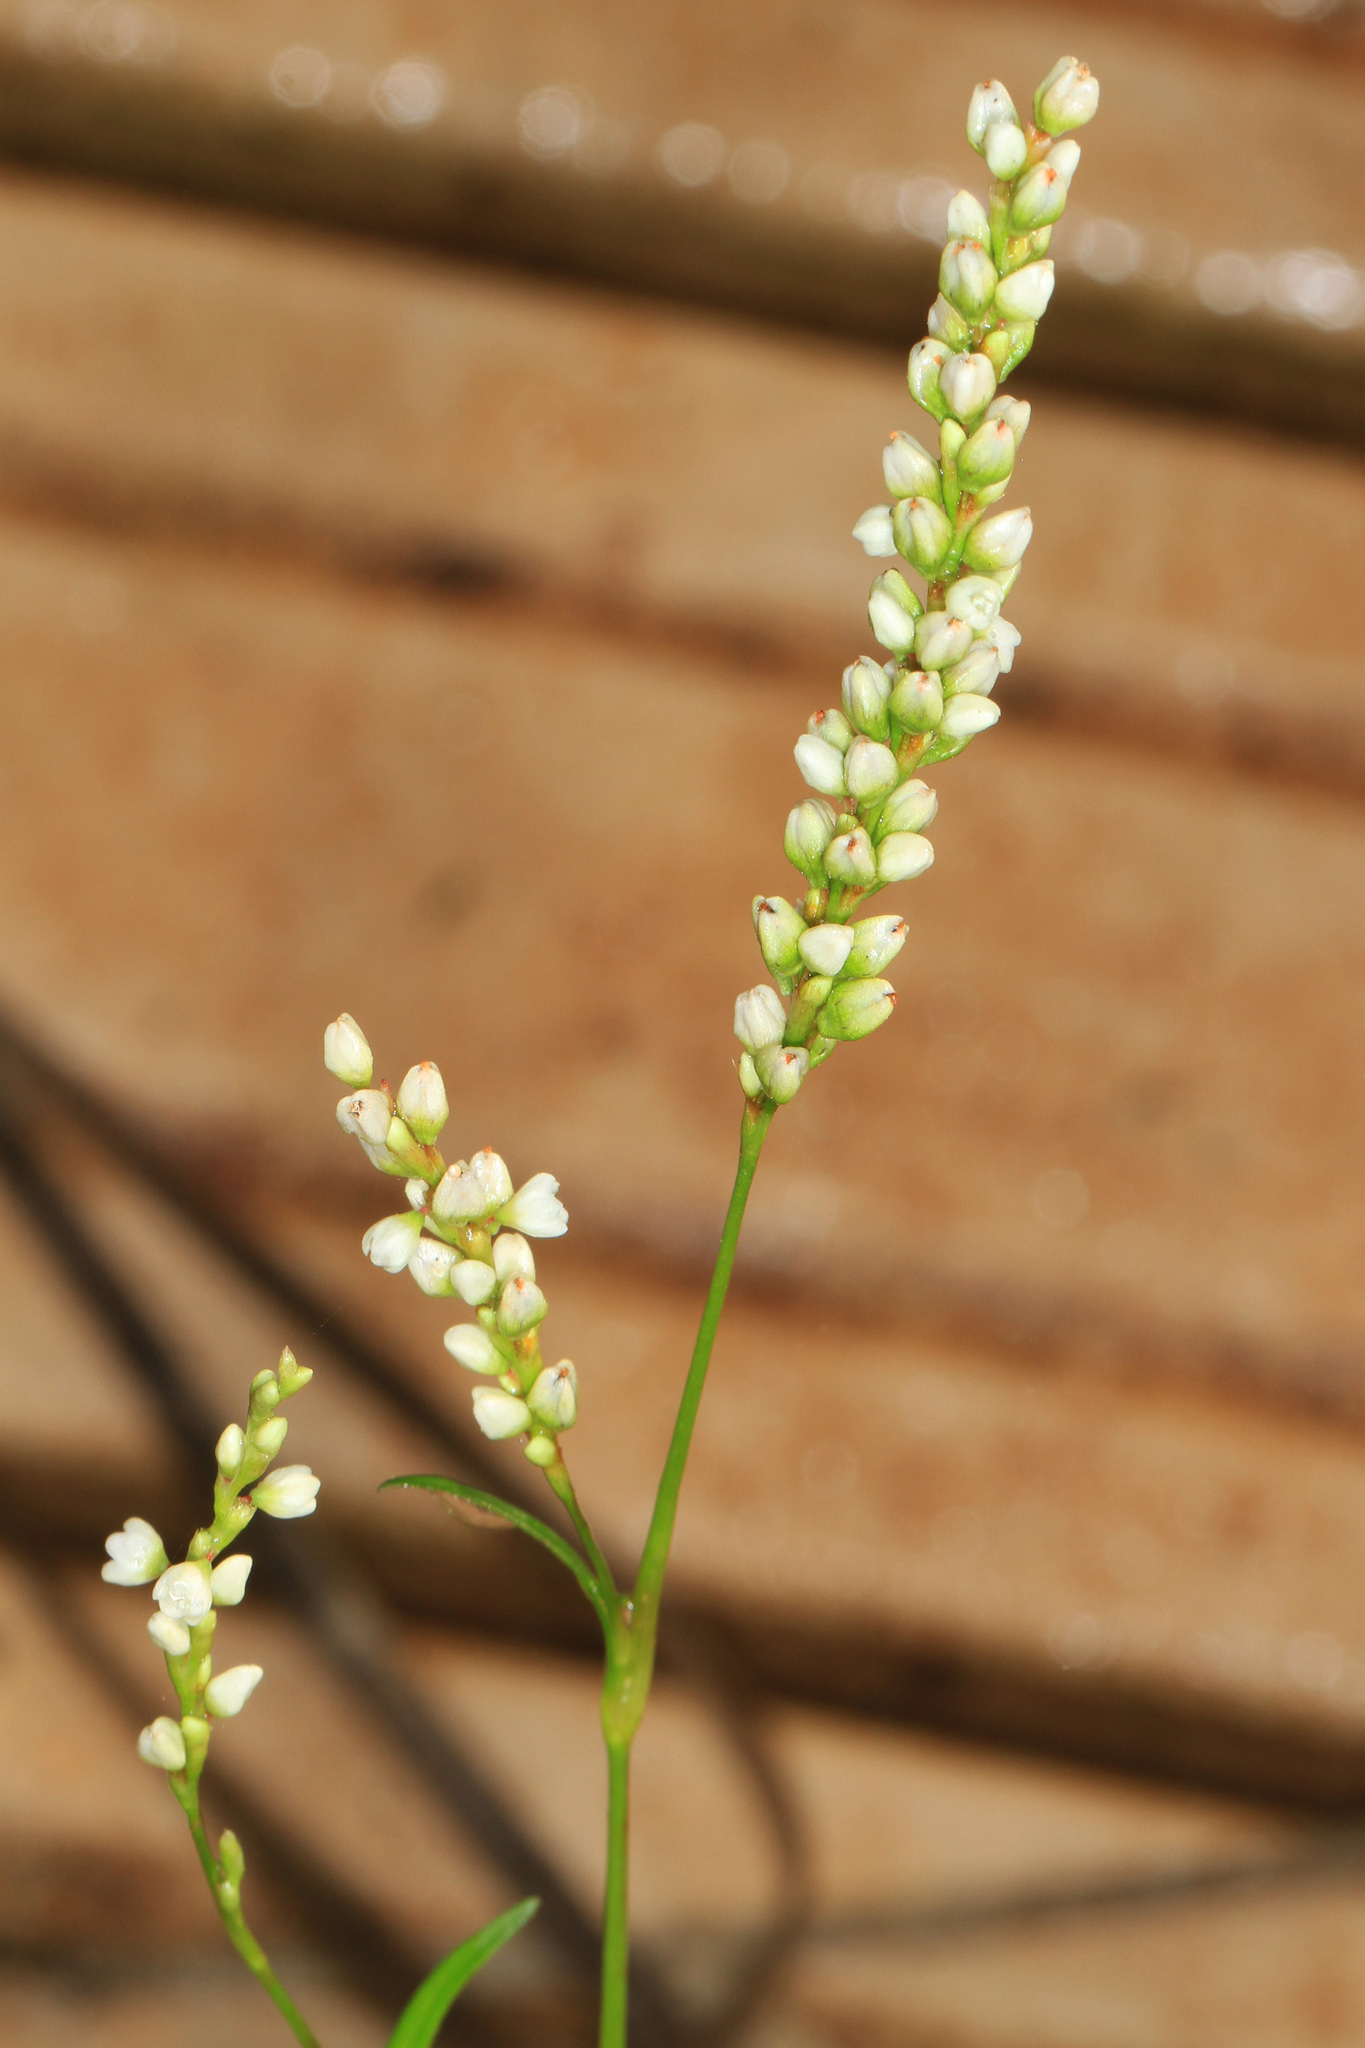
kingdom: Plantae
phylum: Tracheophyta
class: Magnoliopsida
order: Caryophyllales
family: Polygonaceae
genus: Persicaria
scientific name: Persicaria hydropiperoides
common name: Swamp smartweed
